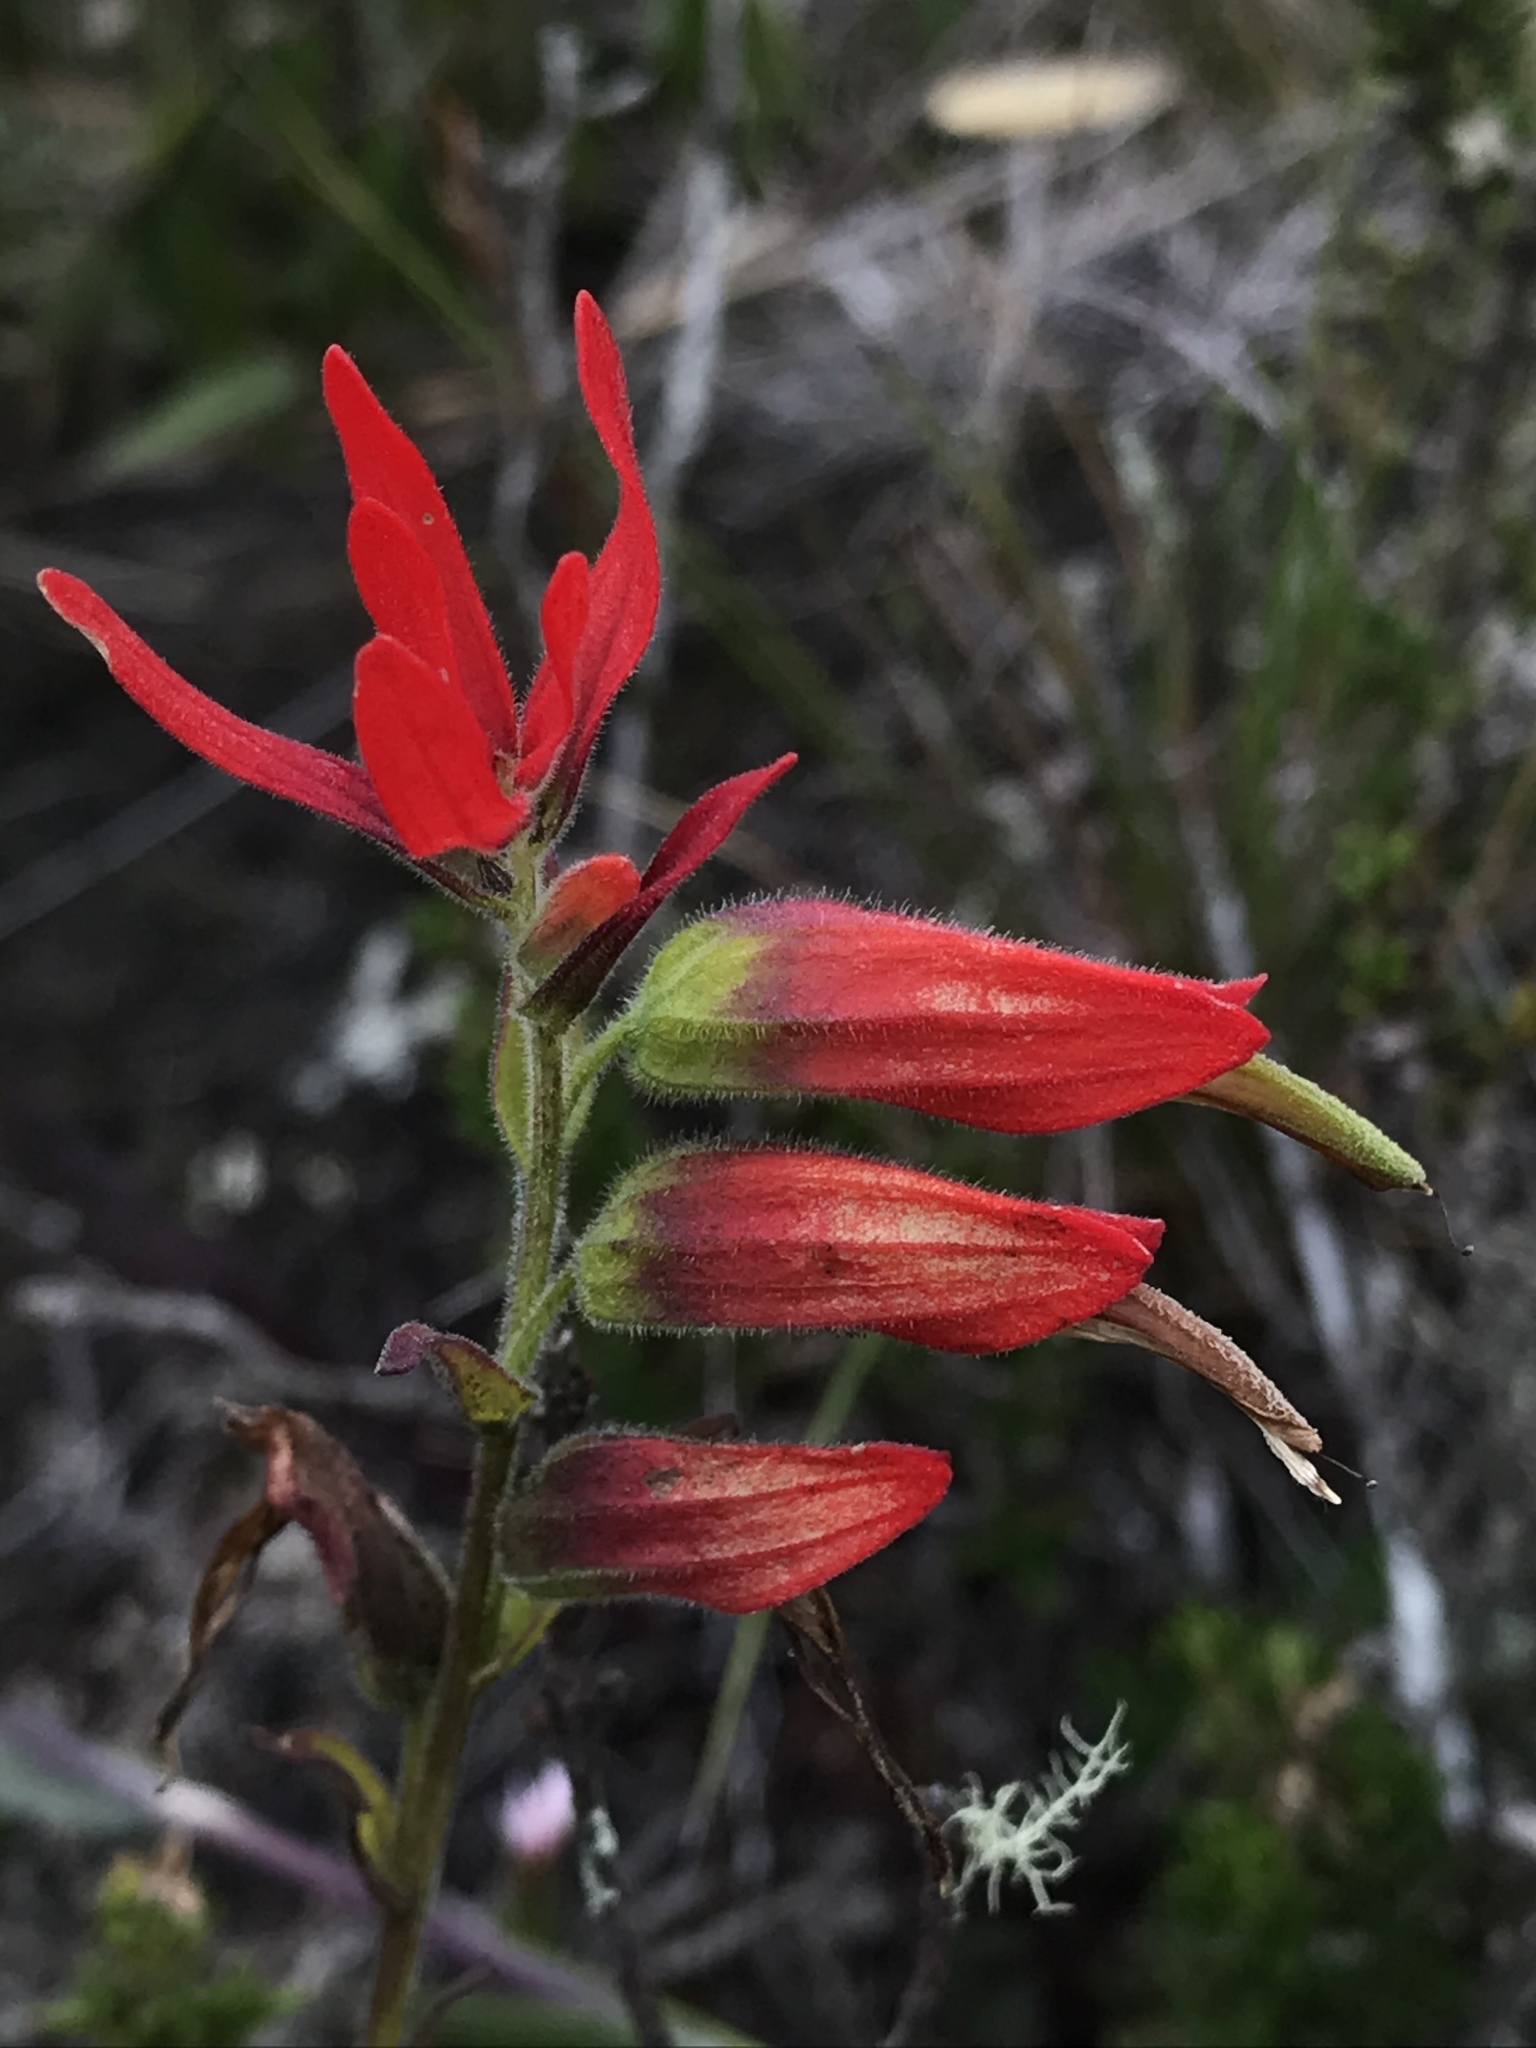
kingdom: Plantae
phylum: Tracheophyta
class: Magnoliopsida
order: Lamiales
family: Orobanchaceae
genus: Castilleja
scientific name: Castilleja integrifolia
